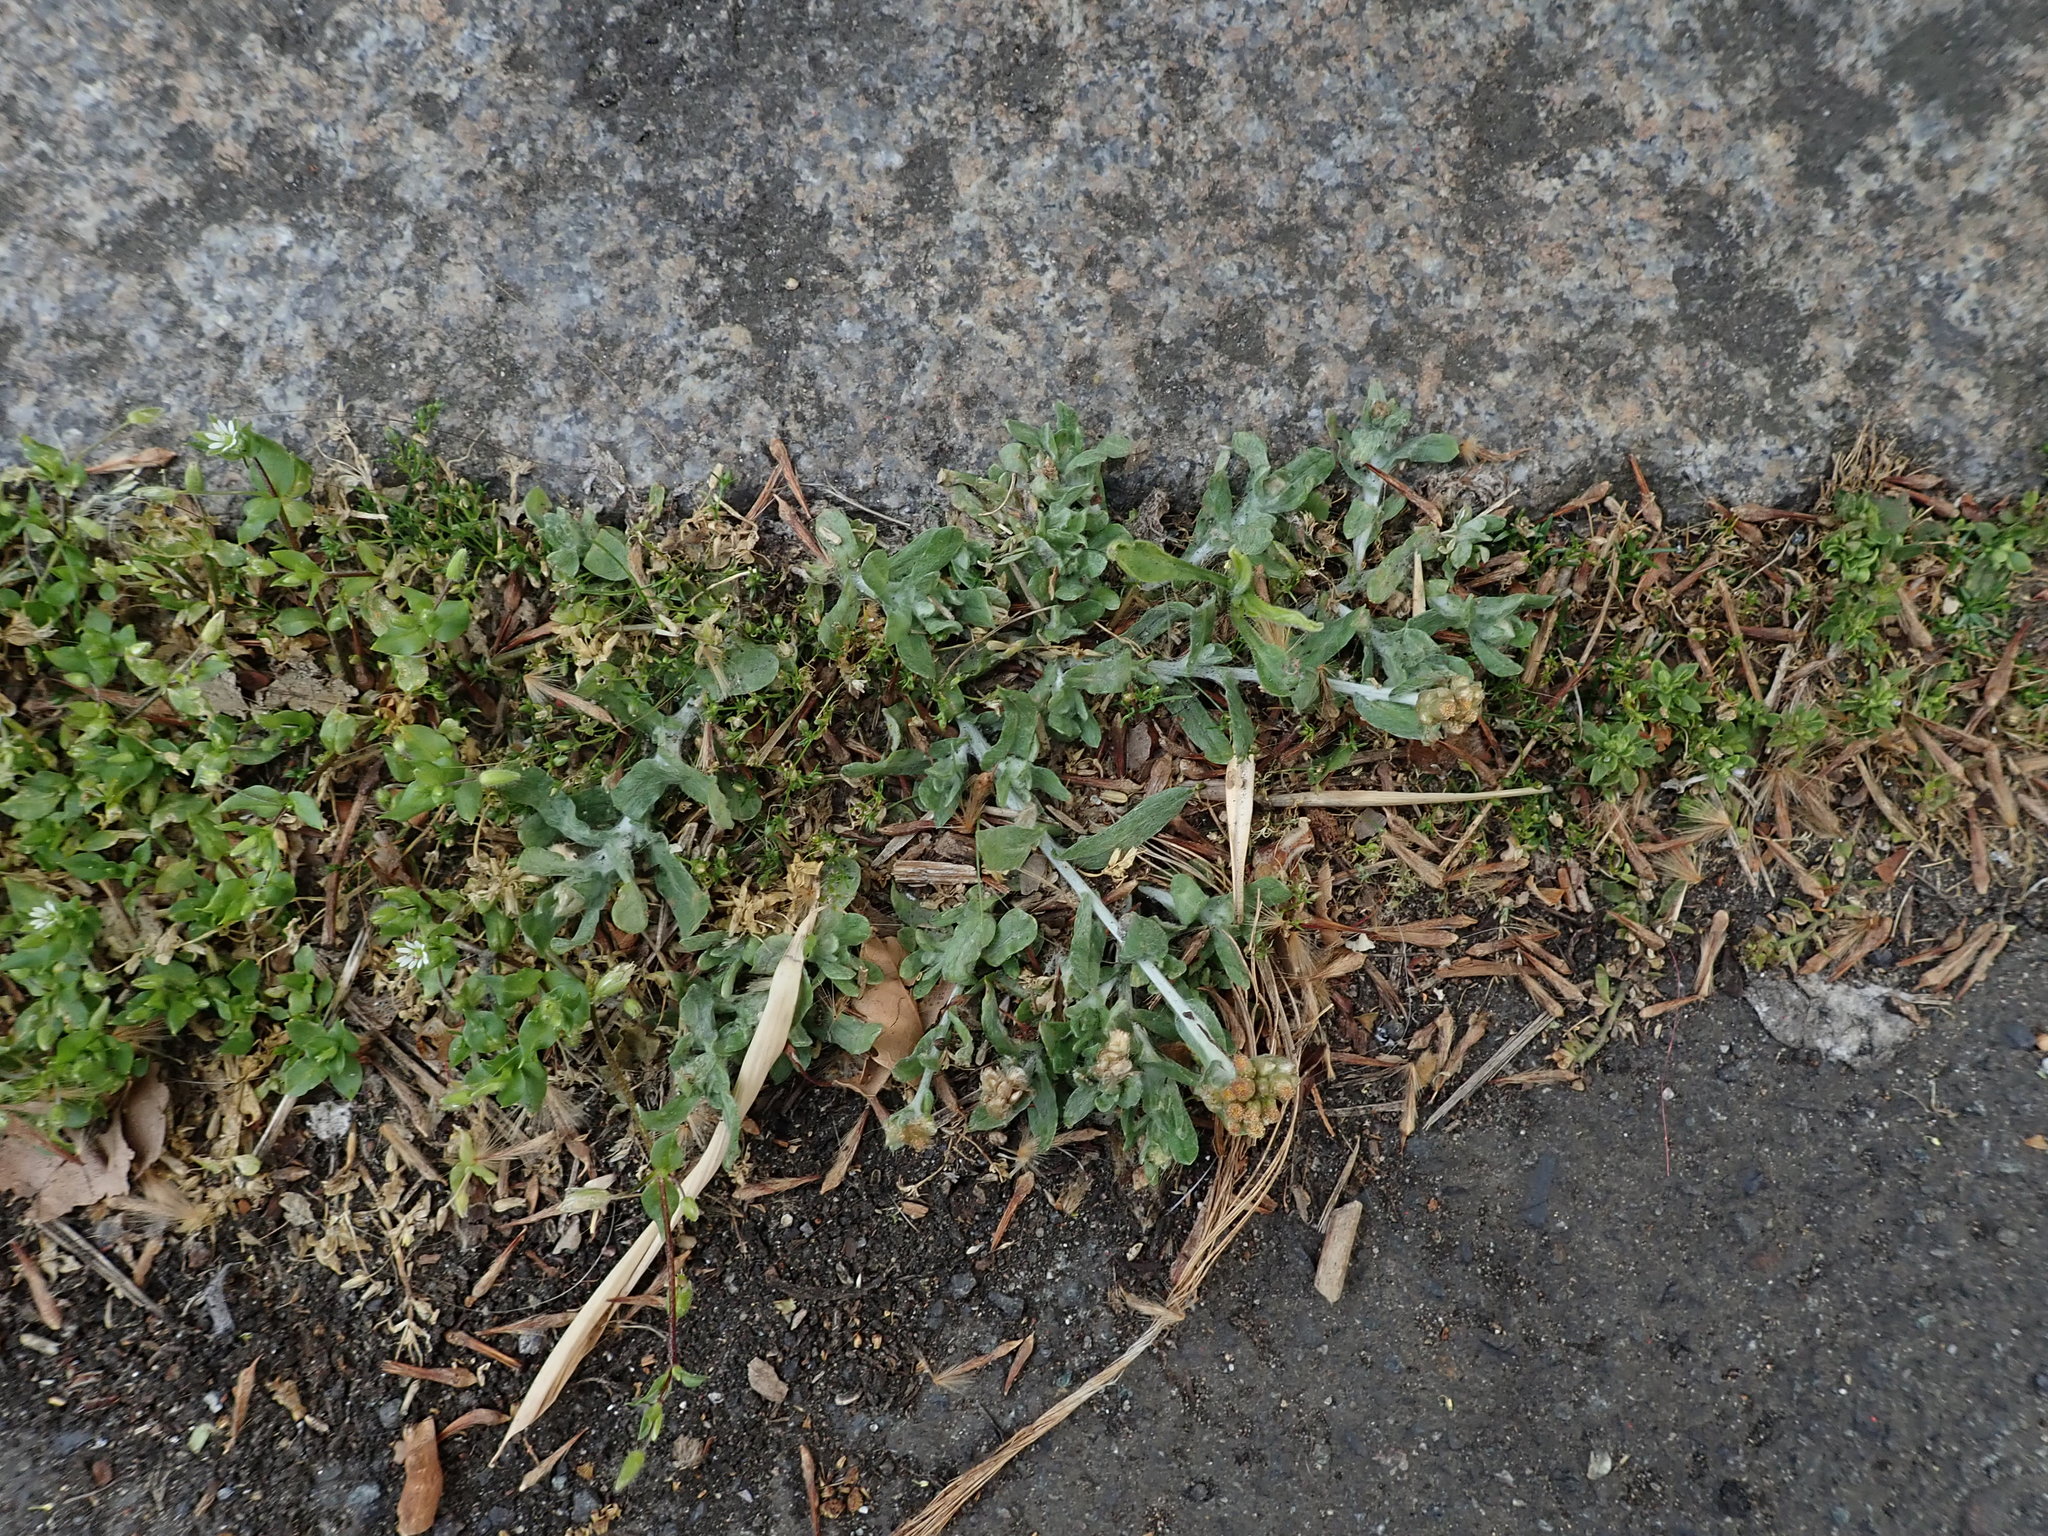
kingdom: Plantae
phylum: Tracheophyta
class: Magnoliopsida
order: Asterales
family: Asteraceae
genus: Helichrysum
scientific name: Helichrysum luteoalbum
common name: Daisy
